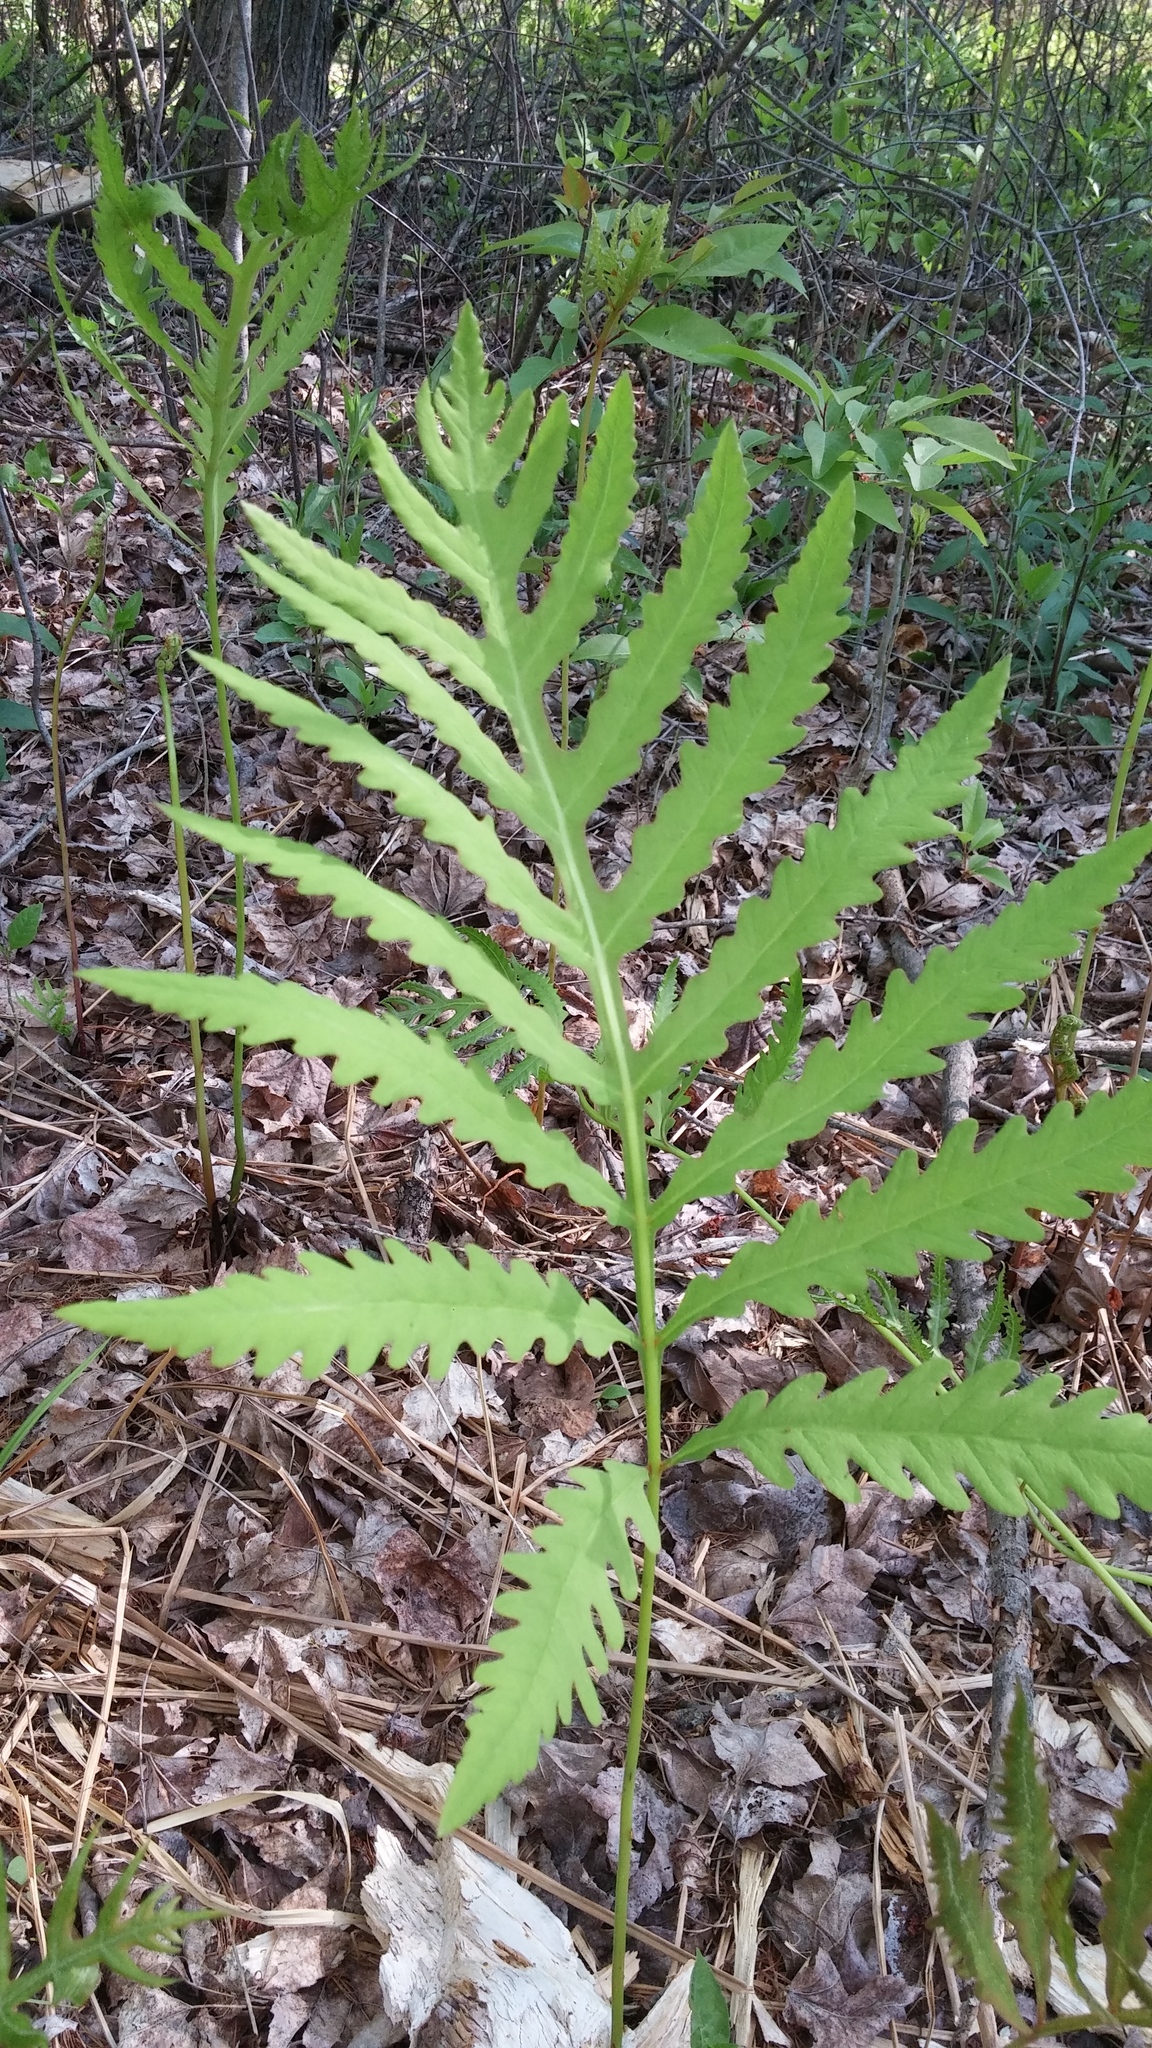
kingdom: Plantae
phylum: Tracheophyta
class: Polypodiopsida
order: Polypodiales
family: Onocleaceae
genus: Onoclea
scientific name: Onoclea sensibilis
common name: Sensitive fern
